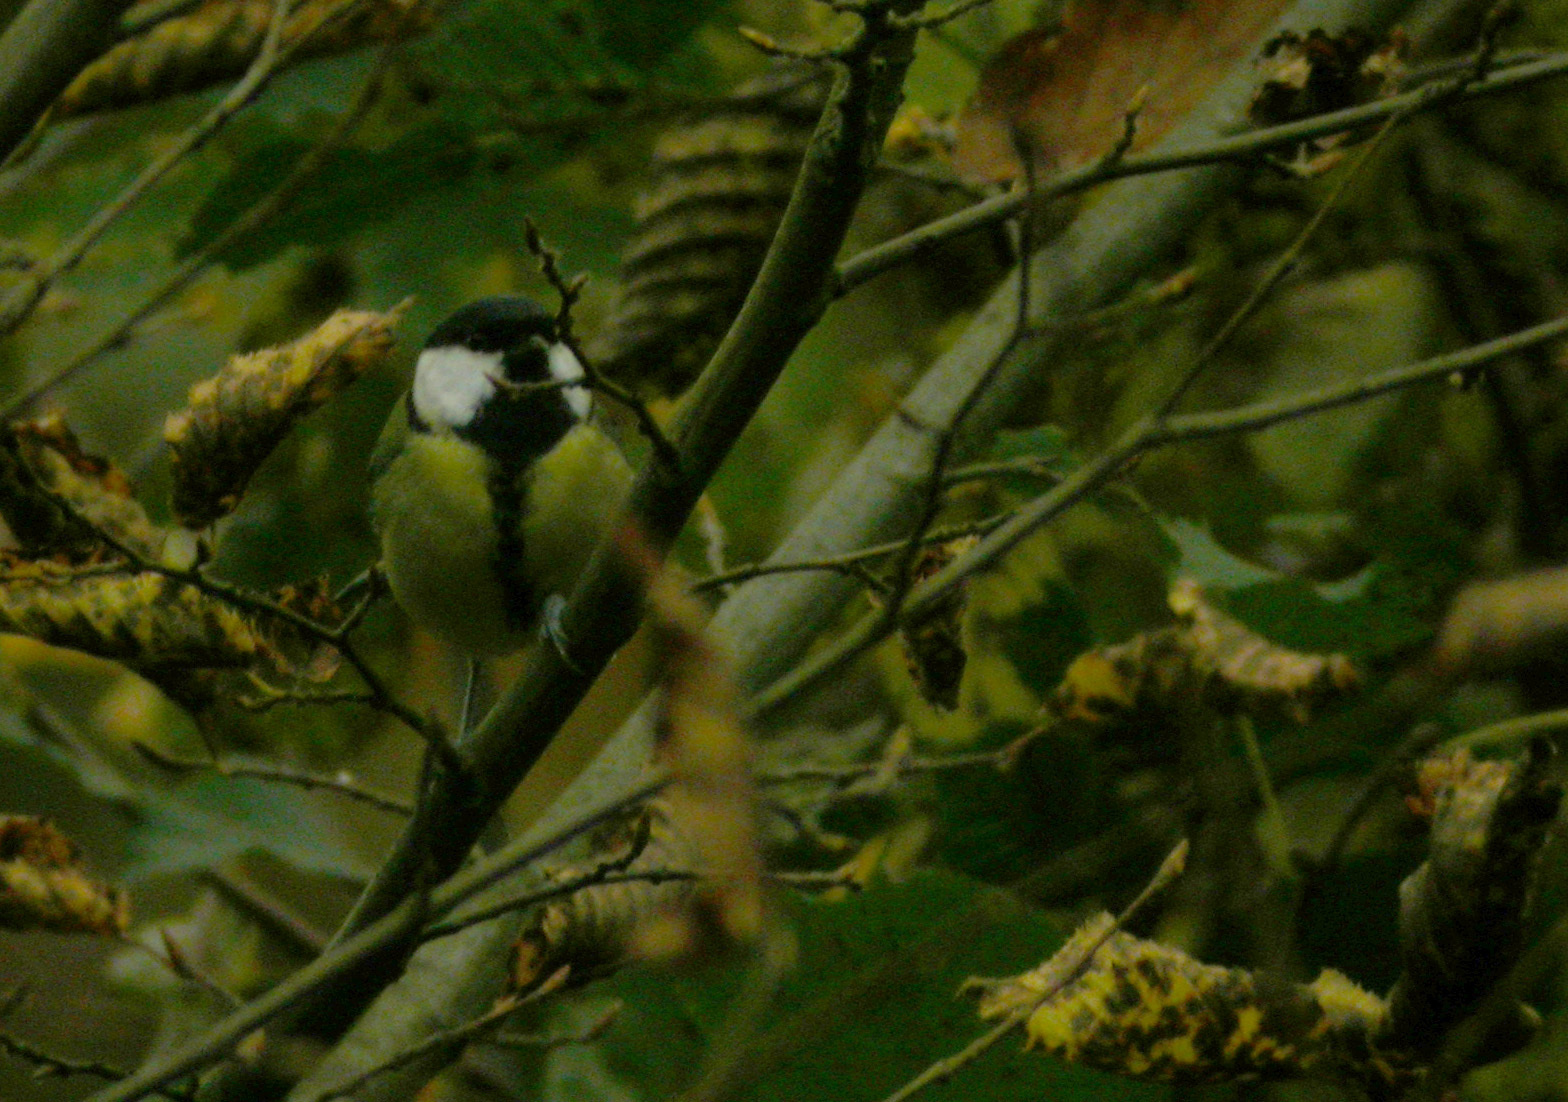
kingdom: Animalia
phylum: Chordata
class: Aves
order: Passeriformes
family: Paridae
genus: Parus
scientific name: Parus major
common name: Great tit
